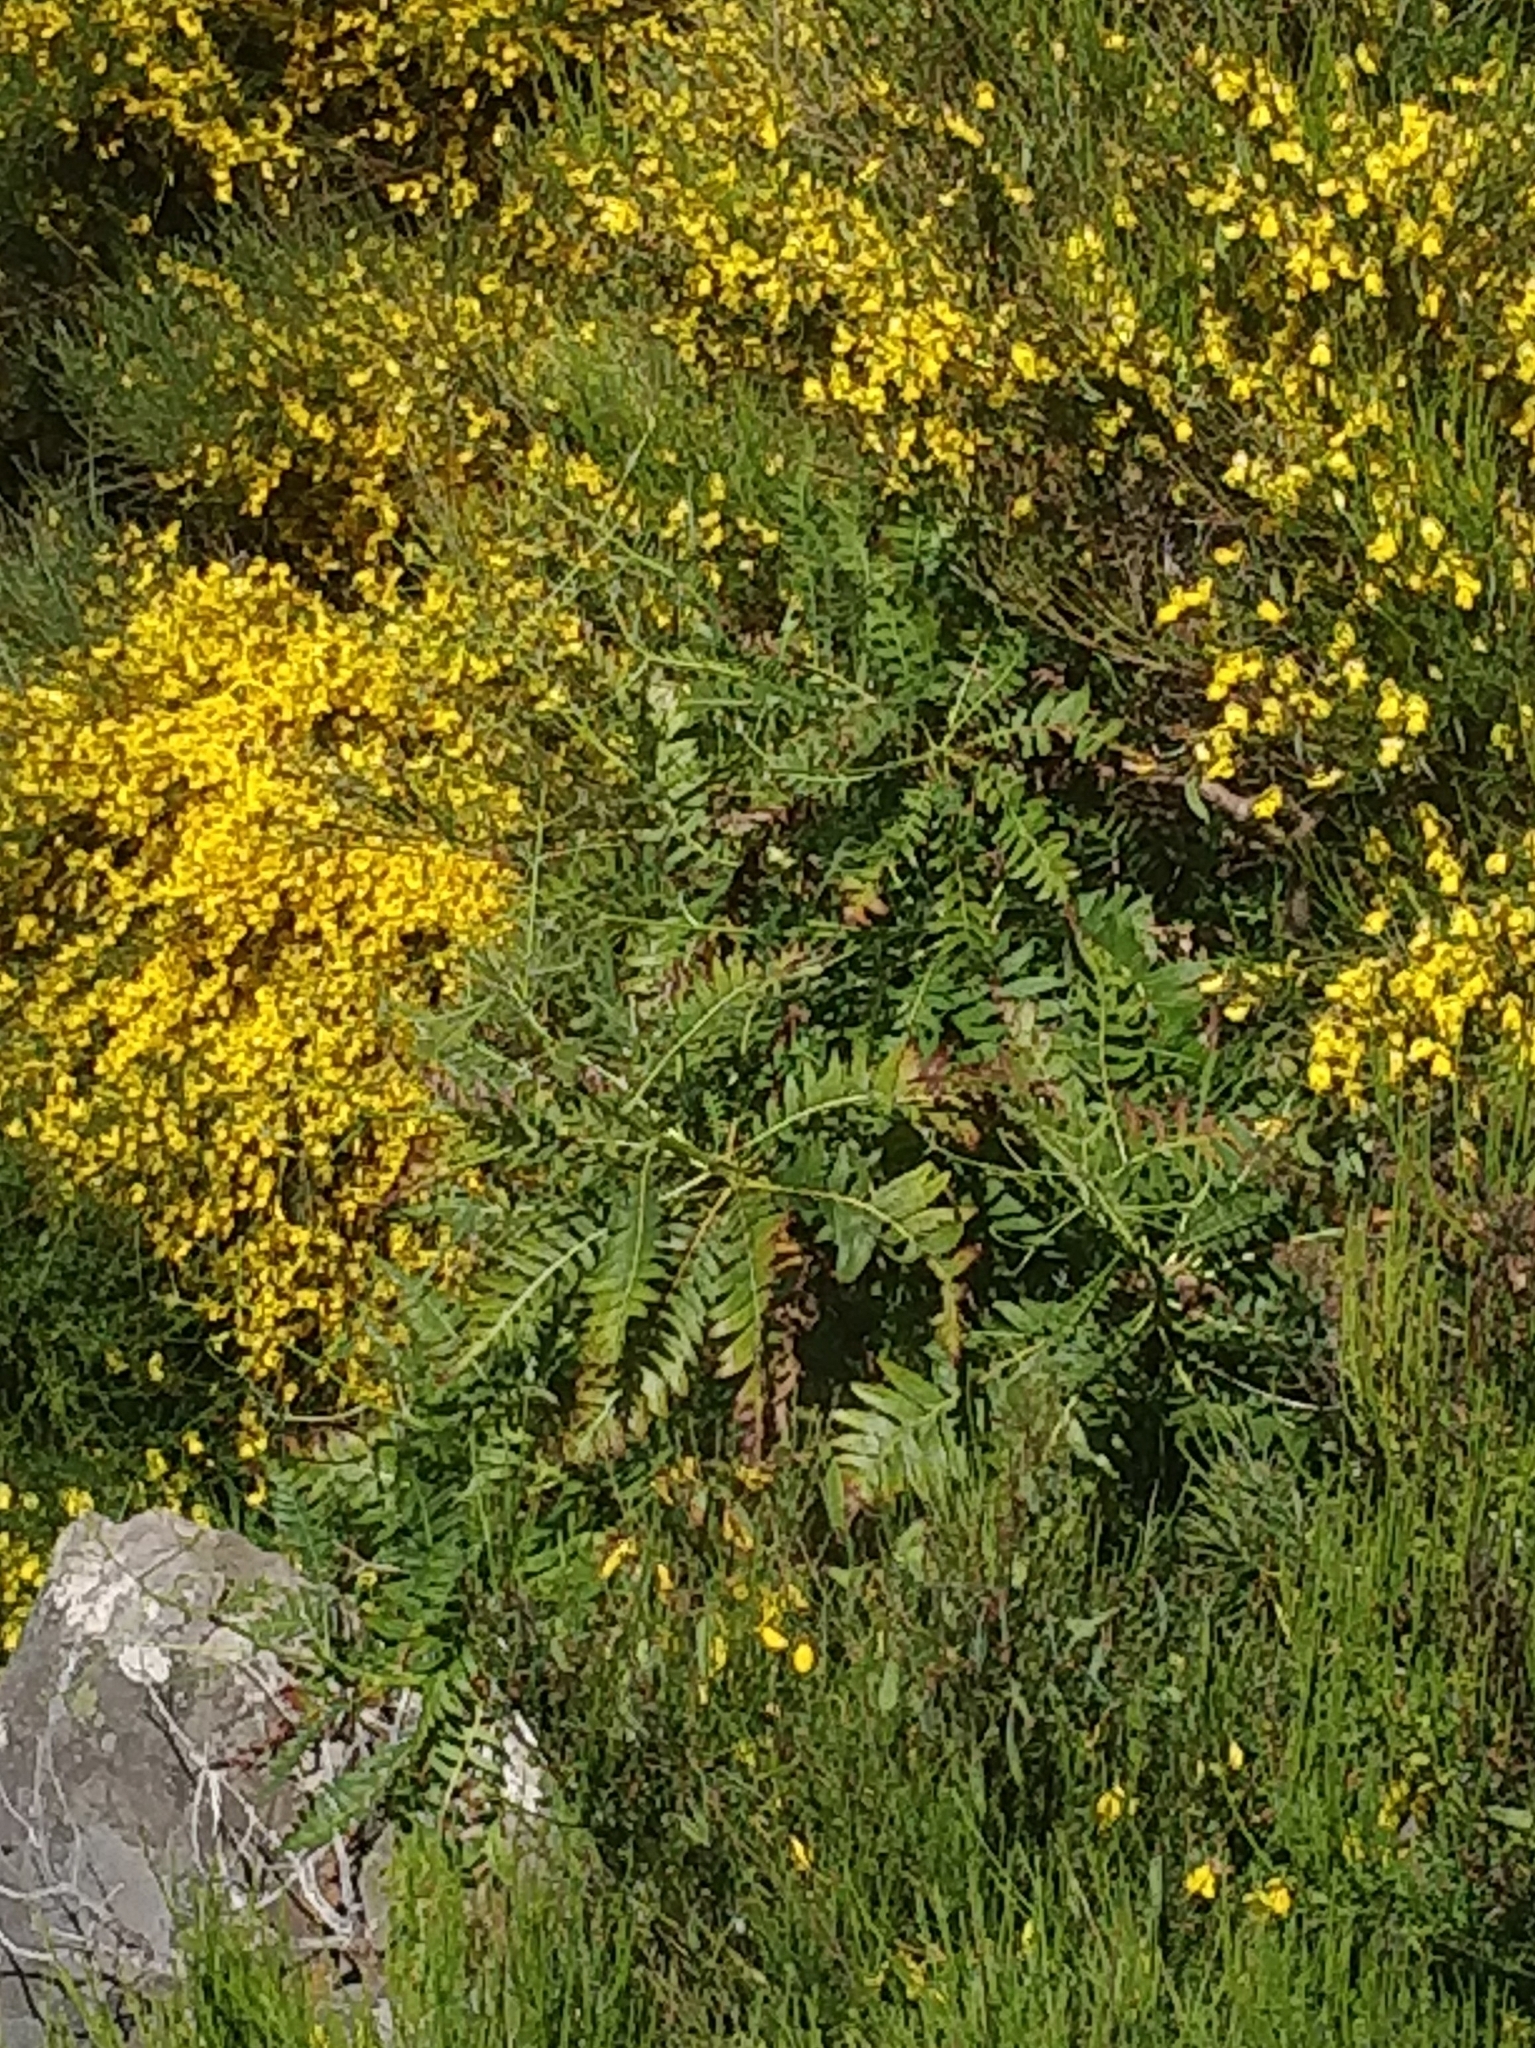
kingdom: Plantae
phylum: Tracheophyta
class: Magnoliopsida
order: Asterales
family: Asteraceae
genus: Sonchus
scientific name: Sonchus pinnatus
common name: Wing-leaved sow-thistle
